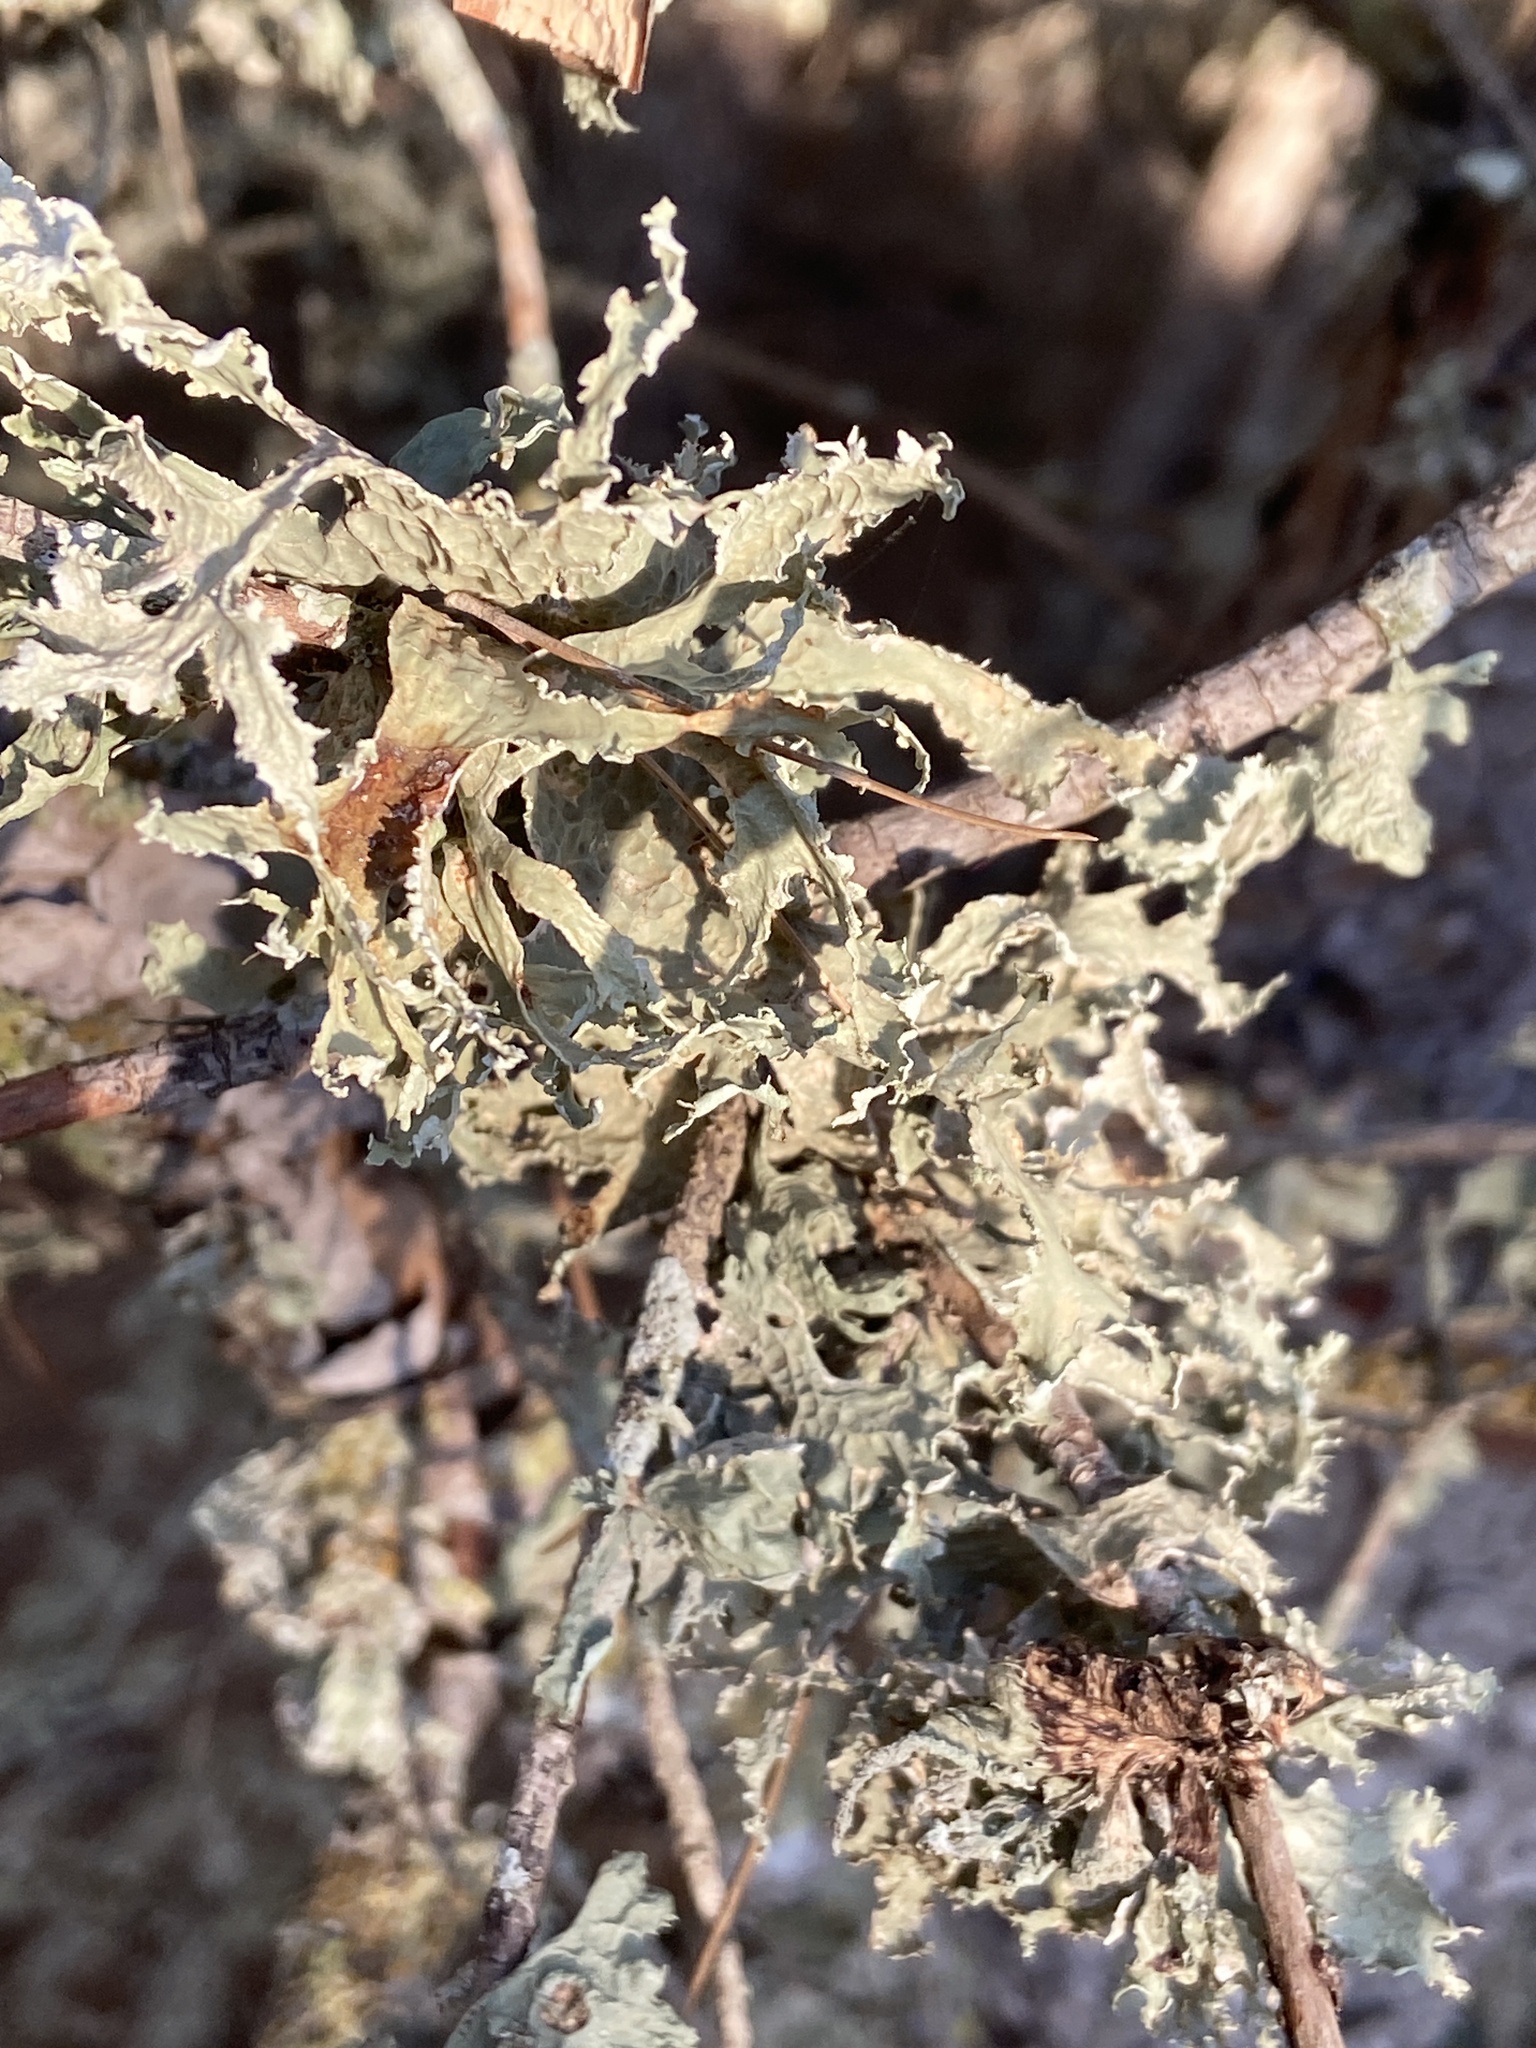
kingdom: Fungi
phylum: Ascomycota
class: Lecanoromycetes
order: Lecanorales
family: Ramalinaceae
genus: Ramalina
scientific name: Ramalina lacera
